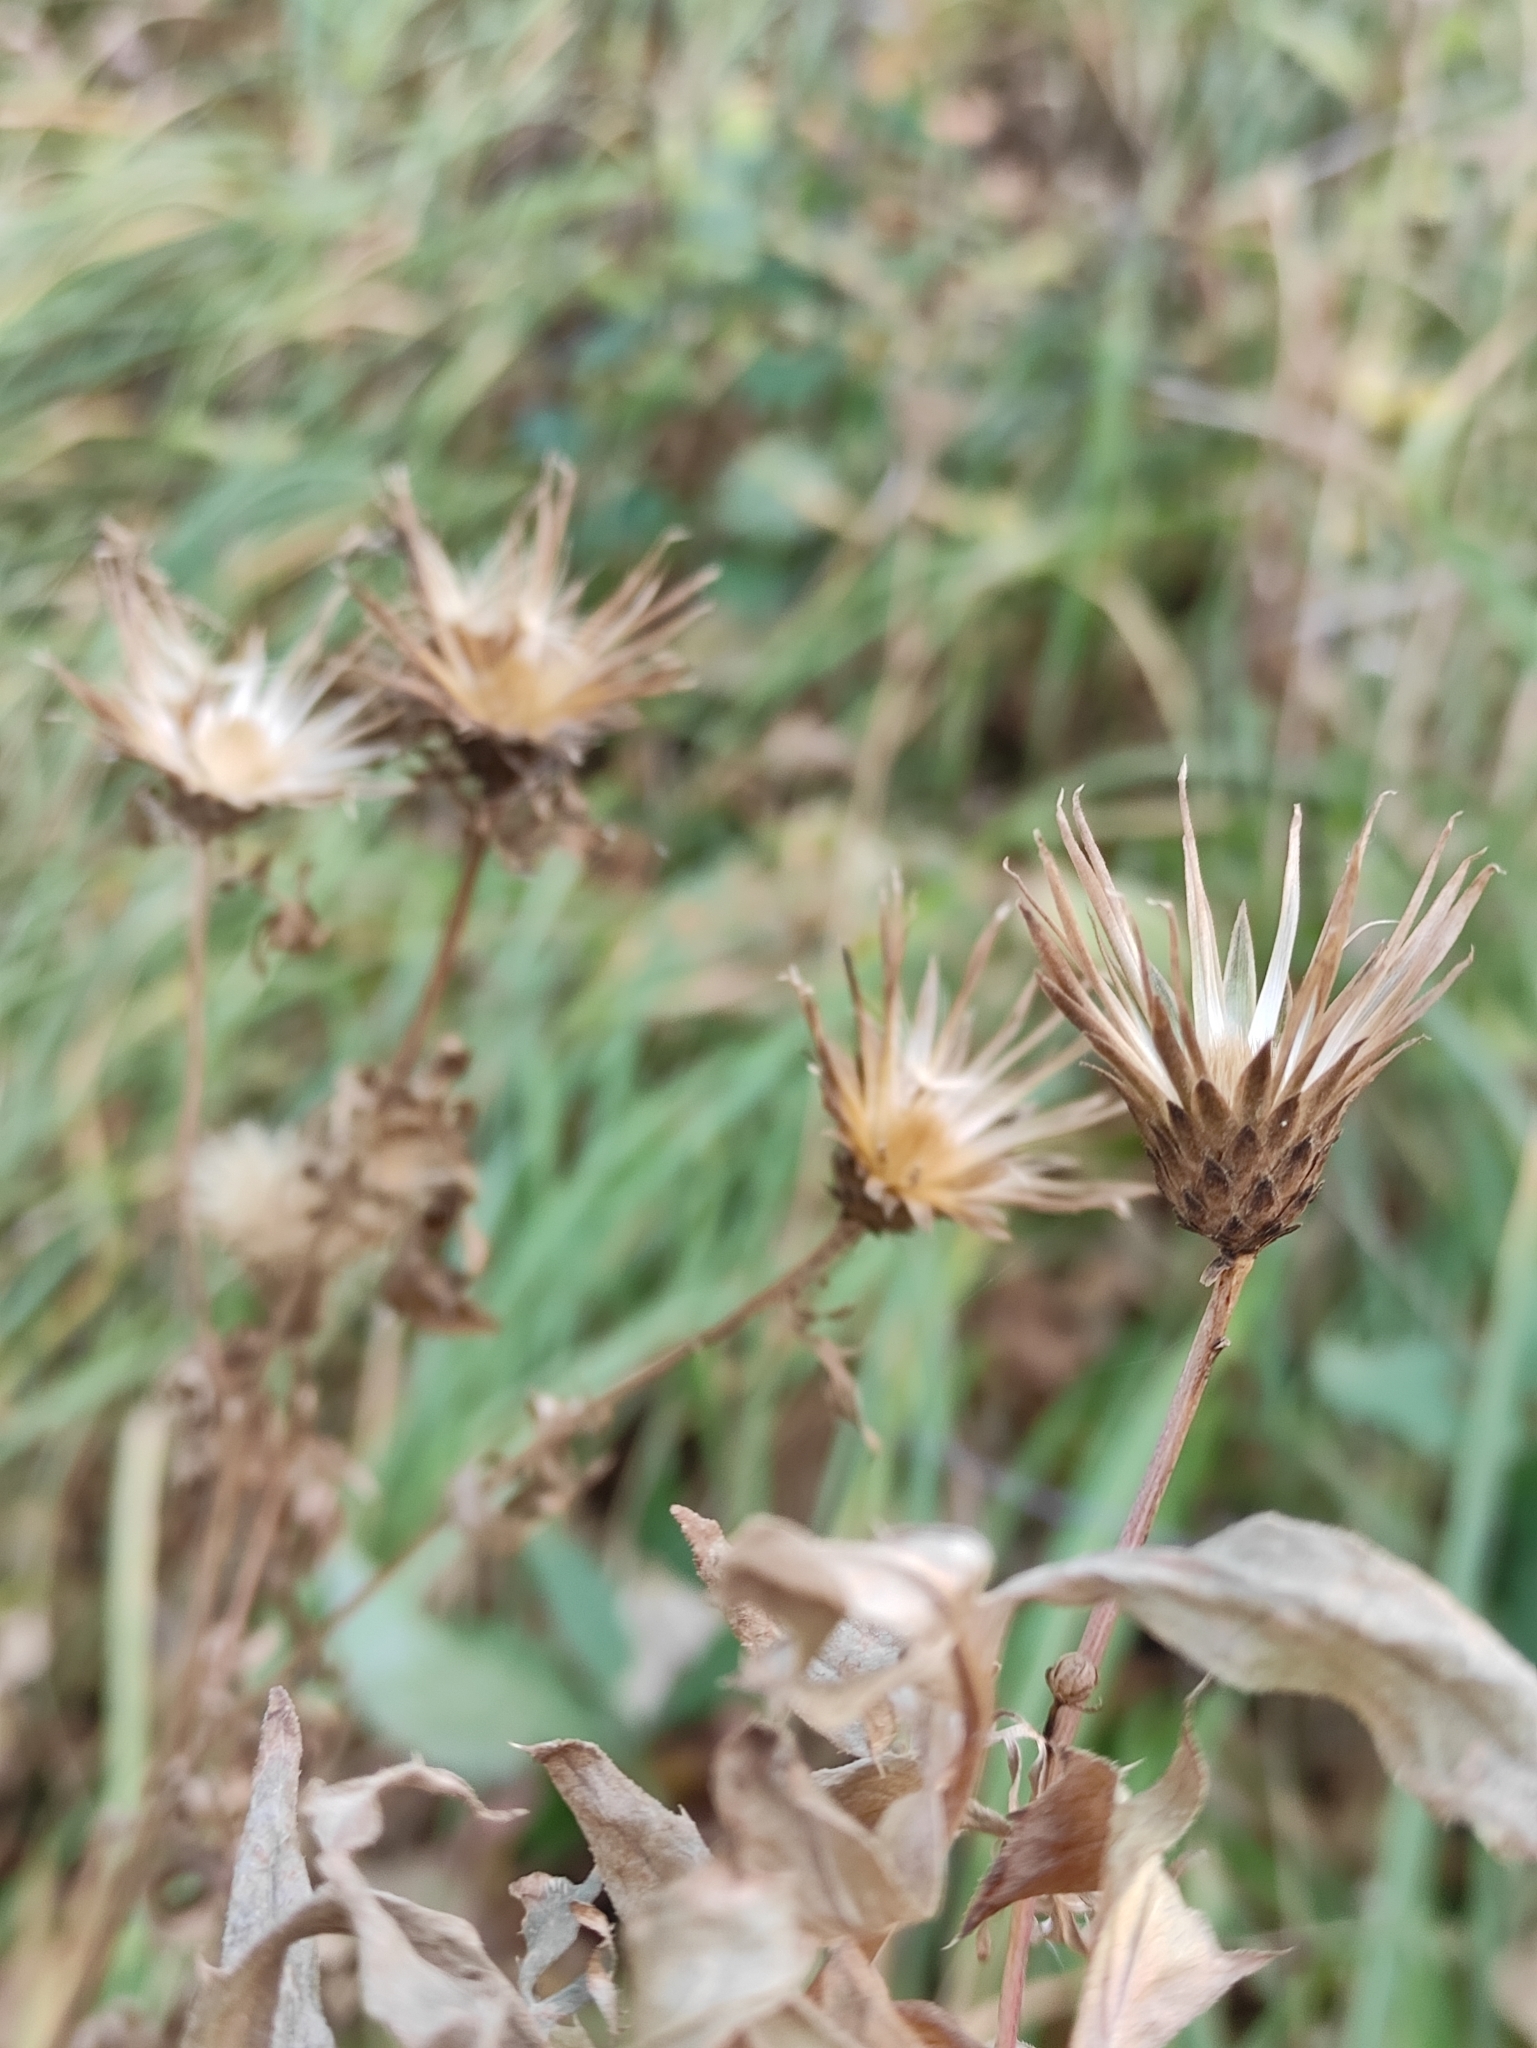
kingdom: Plantae
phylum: Tracheophyta
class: Magnoliopsida
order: Asterales
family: Asteraceae
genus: Serratula
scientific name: Serratula coronata
